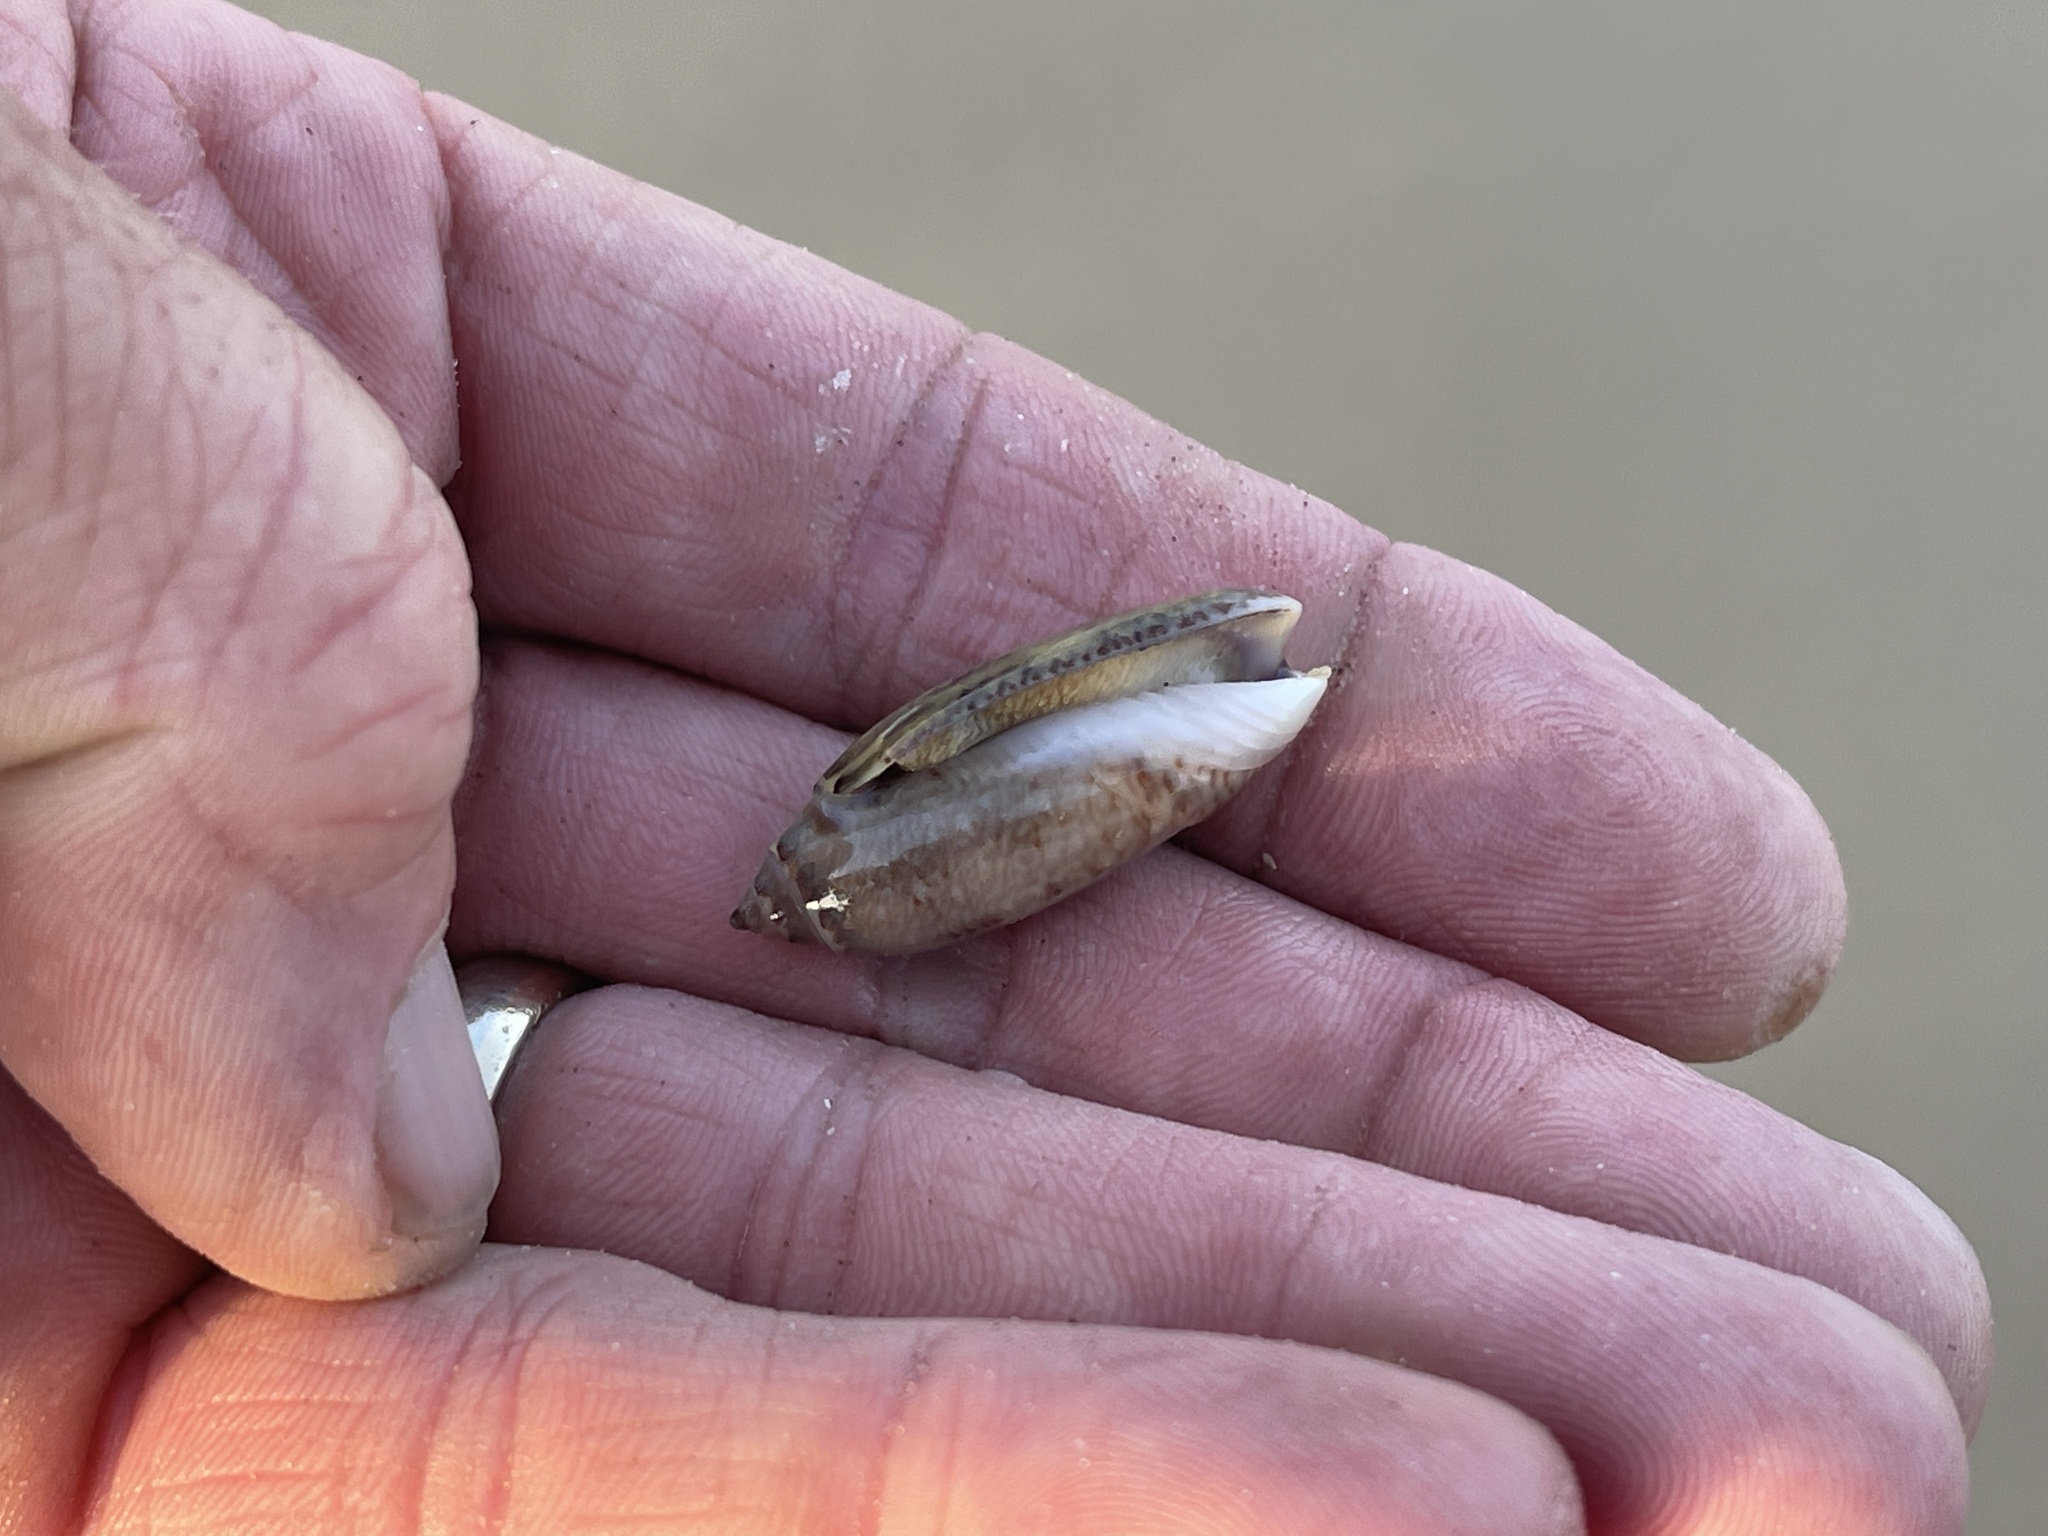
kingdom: Animalia
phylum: Mollusca
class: Gastropoda
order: Neogastropoda
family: Olividae
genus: Oliva
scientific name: Oliva sayana
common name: Lettered olive
